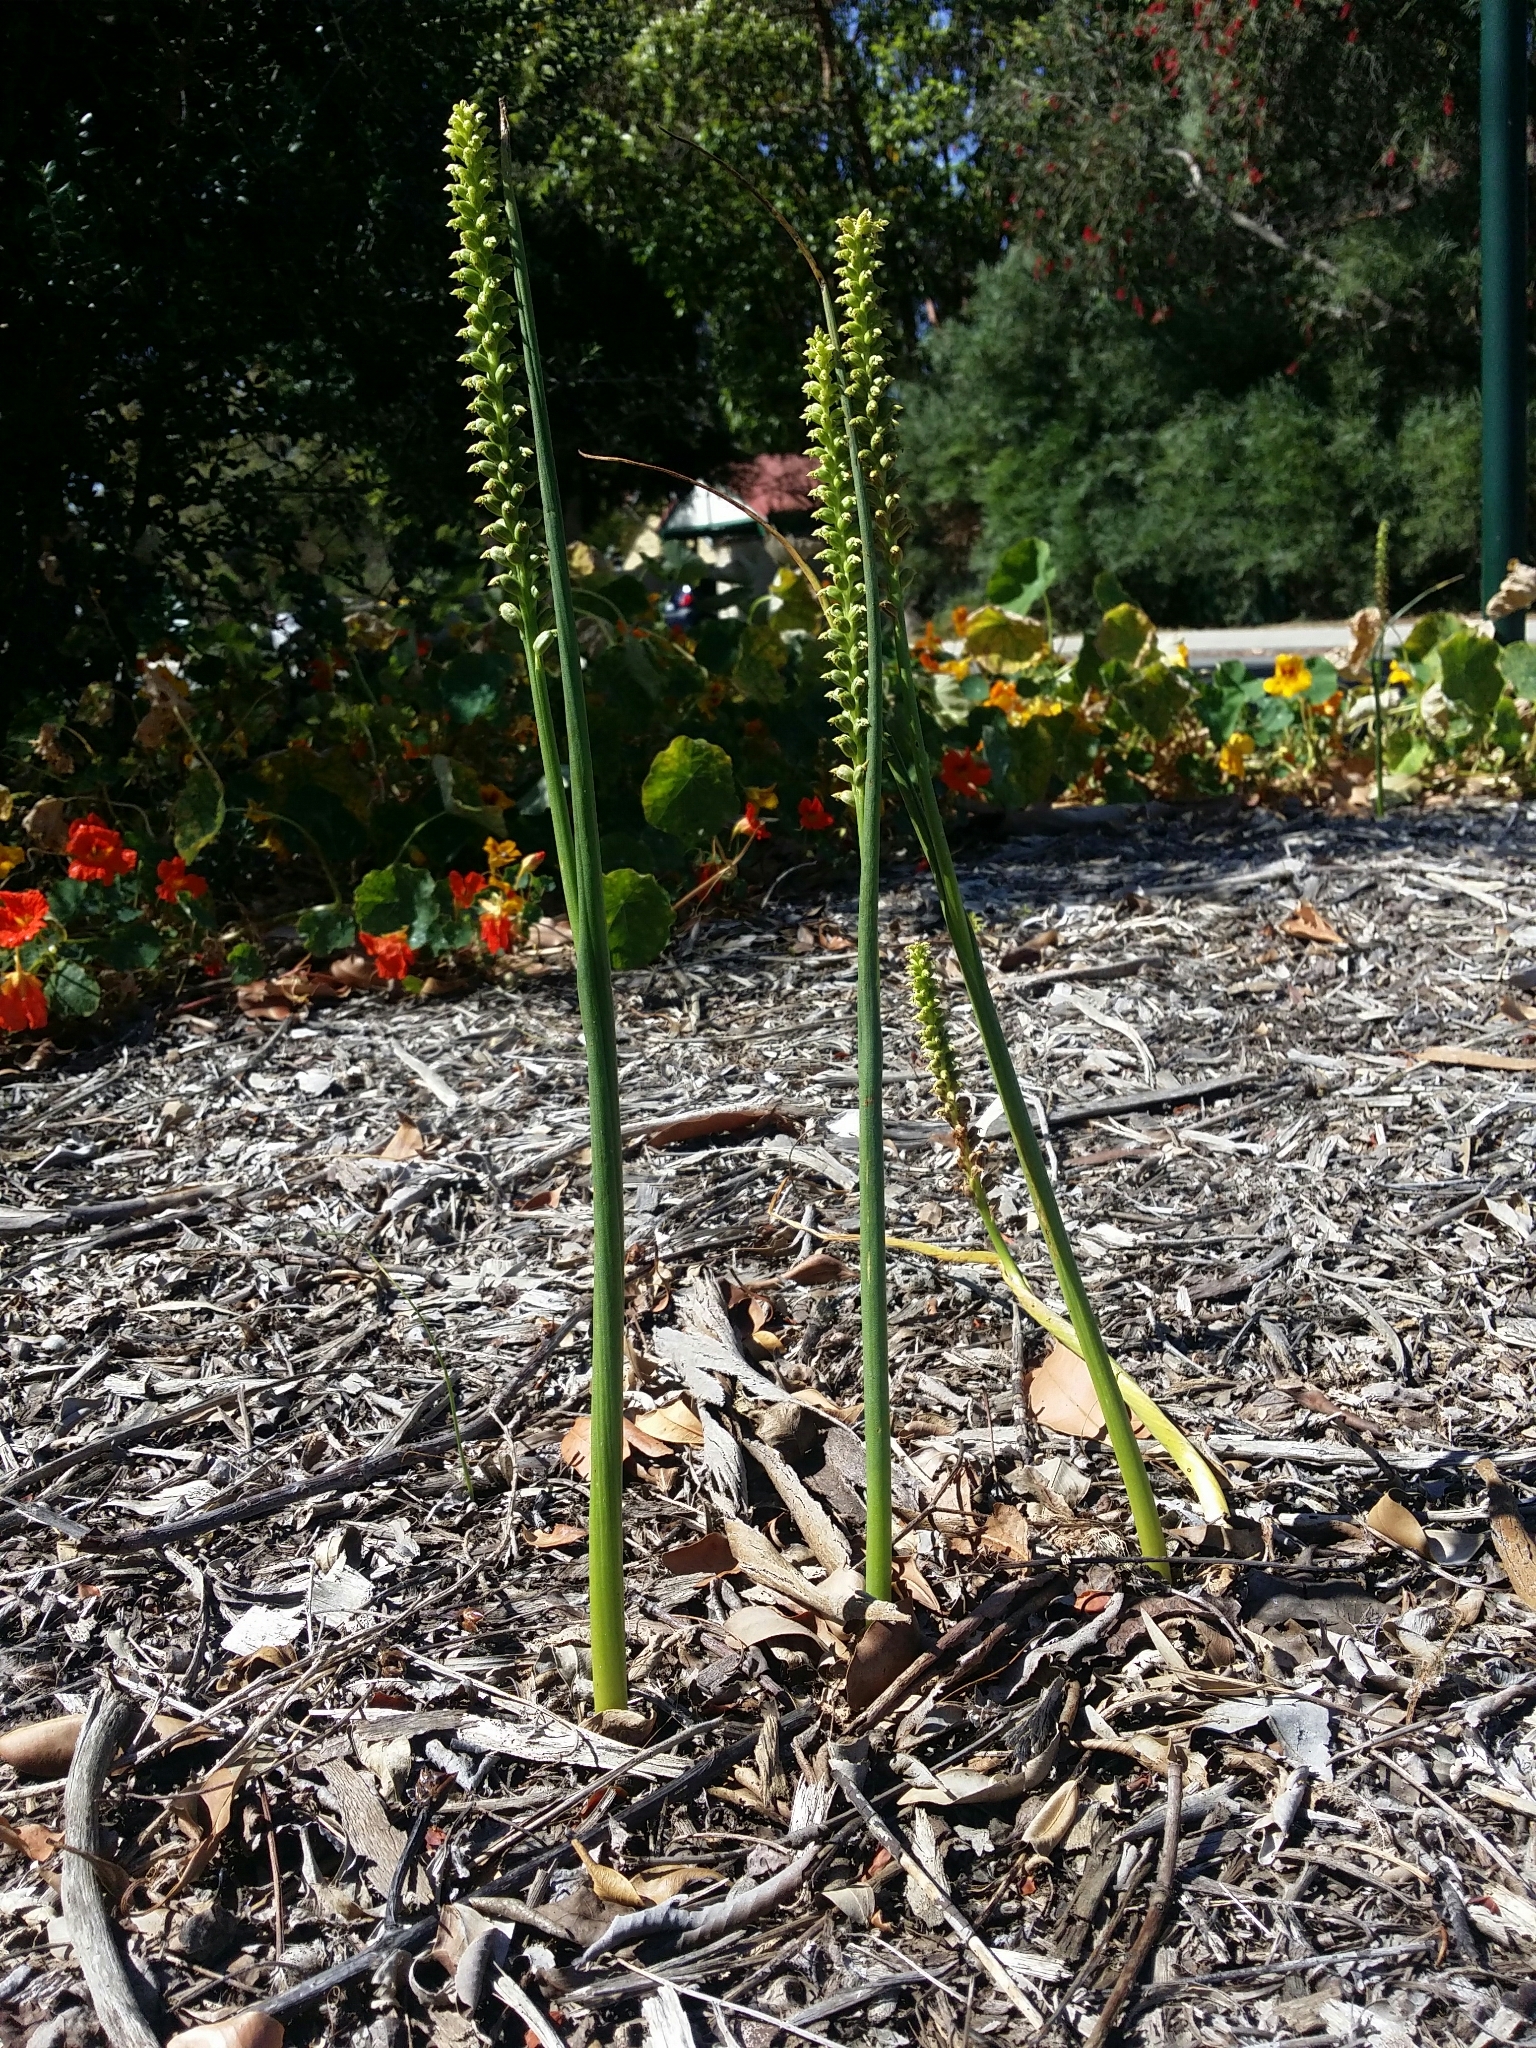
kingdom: Plantae
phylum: Tracheophyta
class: Liliopsida
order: Asparagales
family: Orchidaceae
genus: Microtis
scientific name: Microtis media
